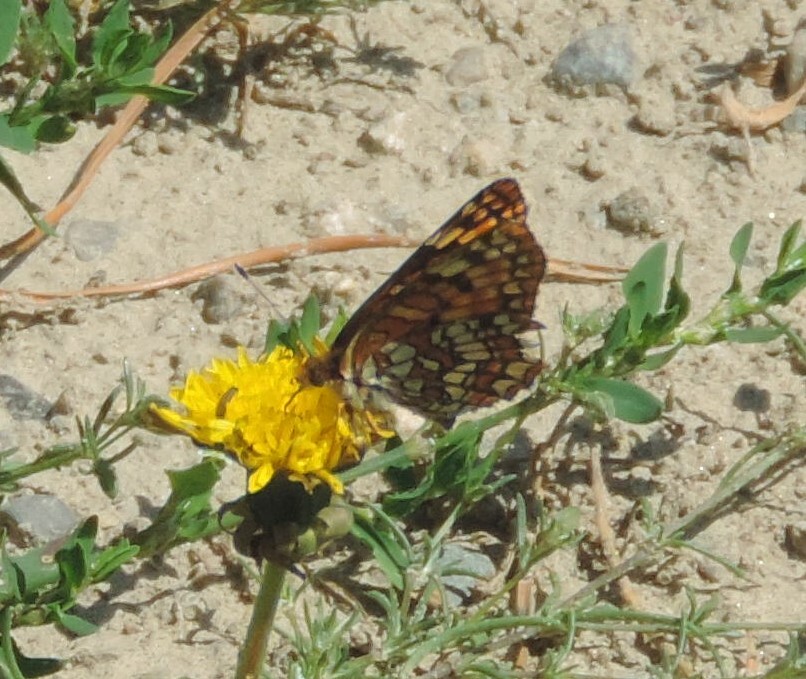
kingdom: Animalia
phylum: Arthropoda
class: Insecta
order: Lepidoptera
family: Nymphalidae
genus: Chlosyne
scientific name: Chlosyne palla
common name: Northern checkerspot
